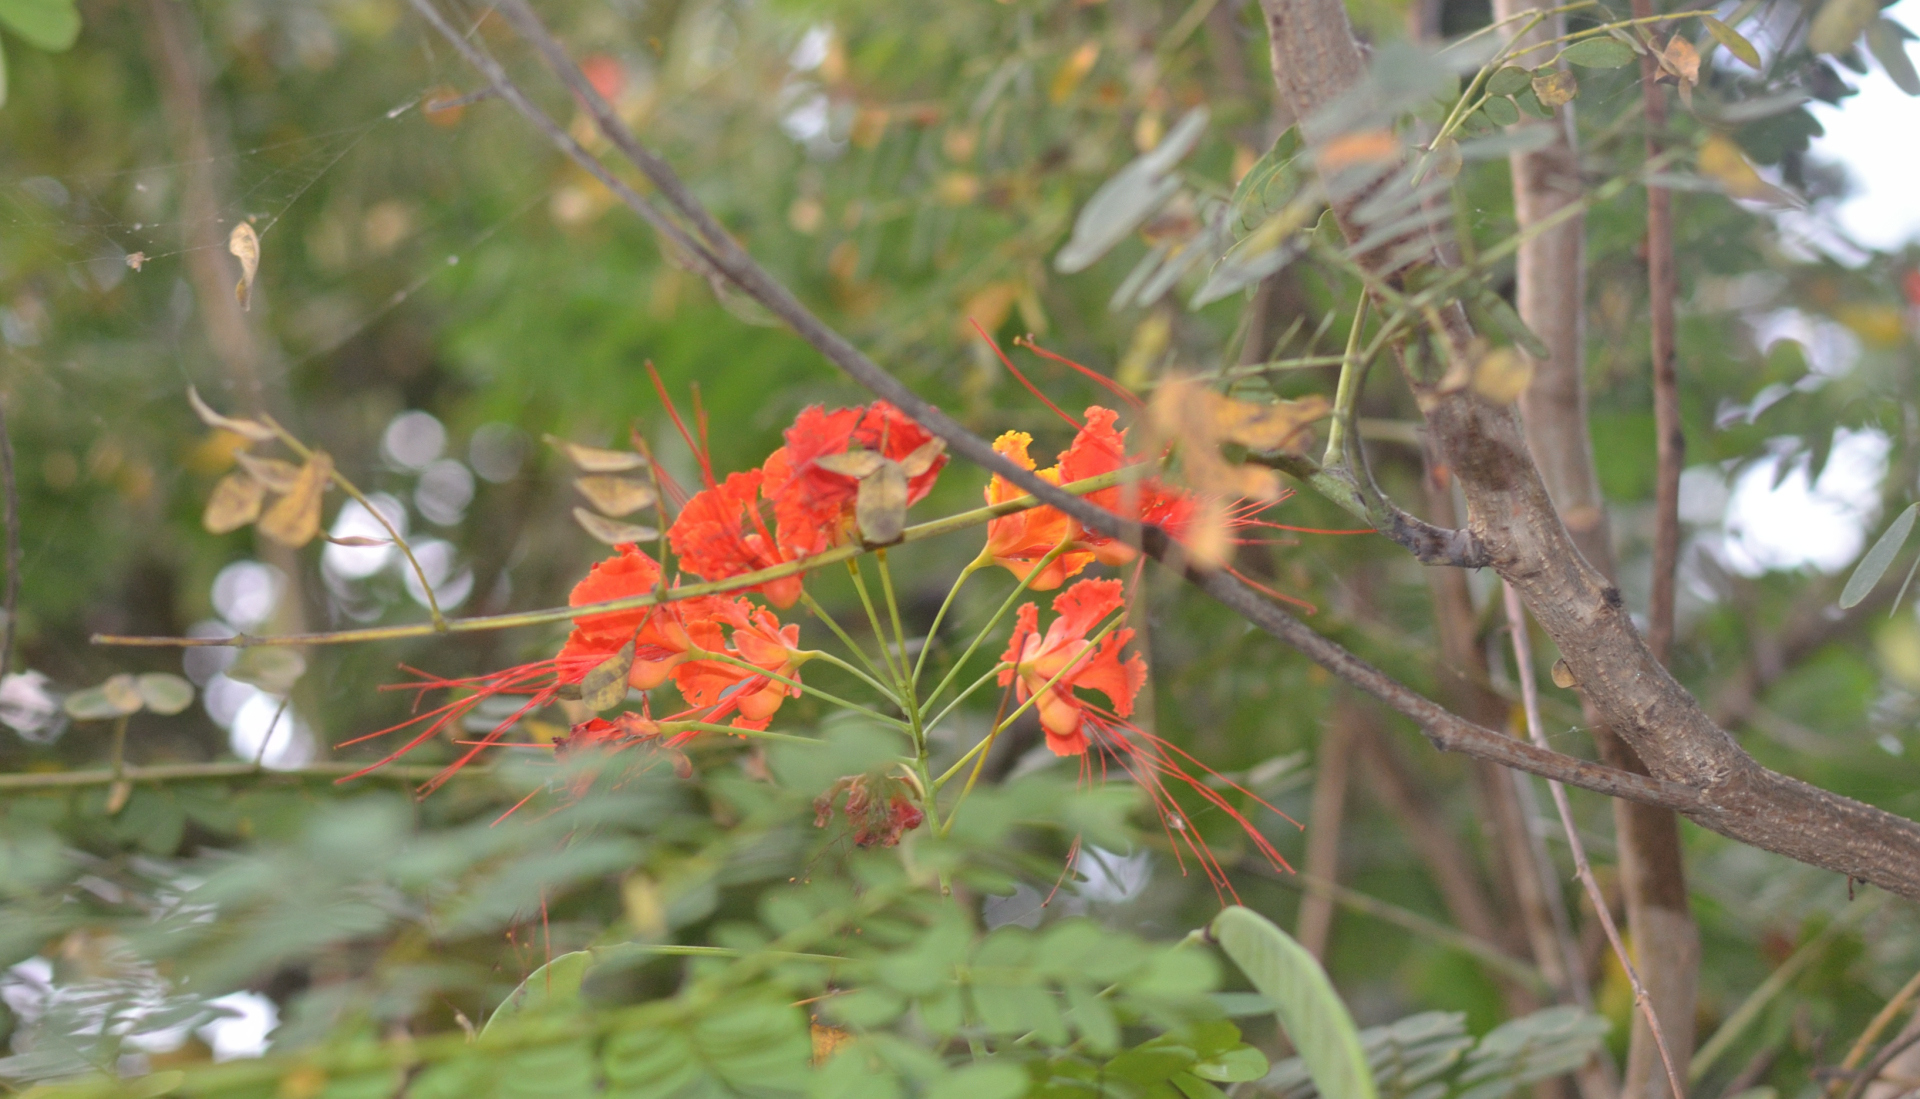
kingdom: Plantae
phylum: Tracheophyta
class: Magnoliopsida
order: Fabales
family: Fabaceae
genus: Caesalpinia
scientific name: Caesalpinia pulcherrima
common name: Pride-of-barbados
